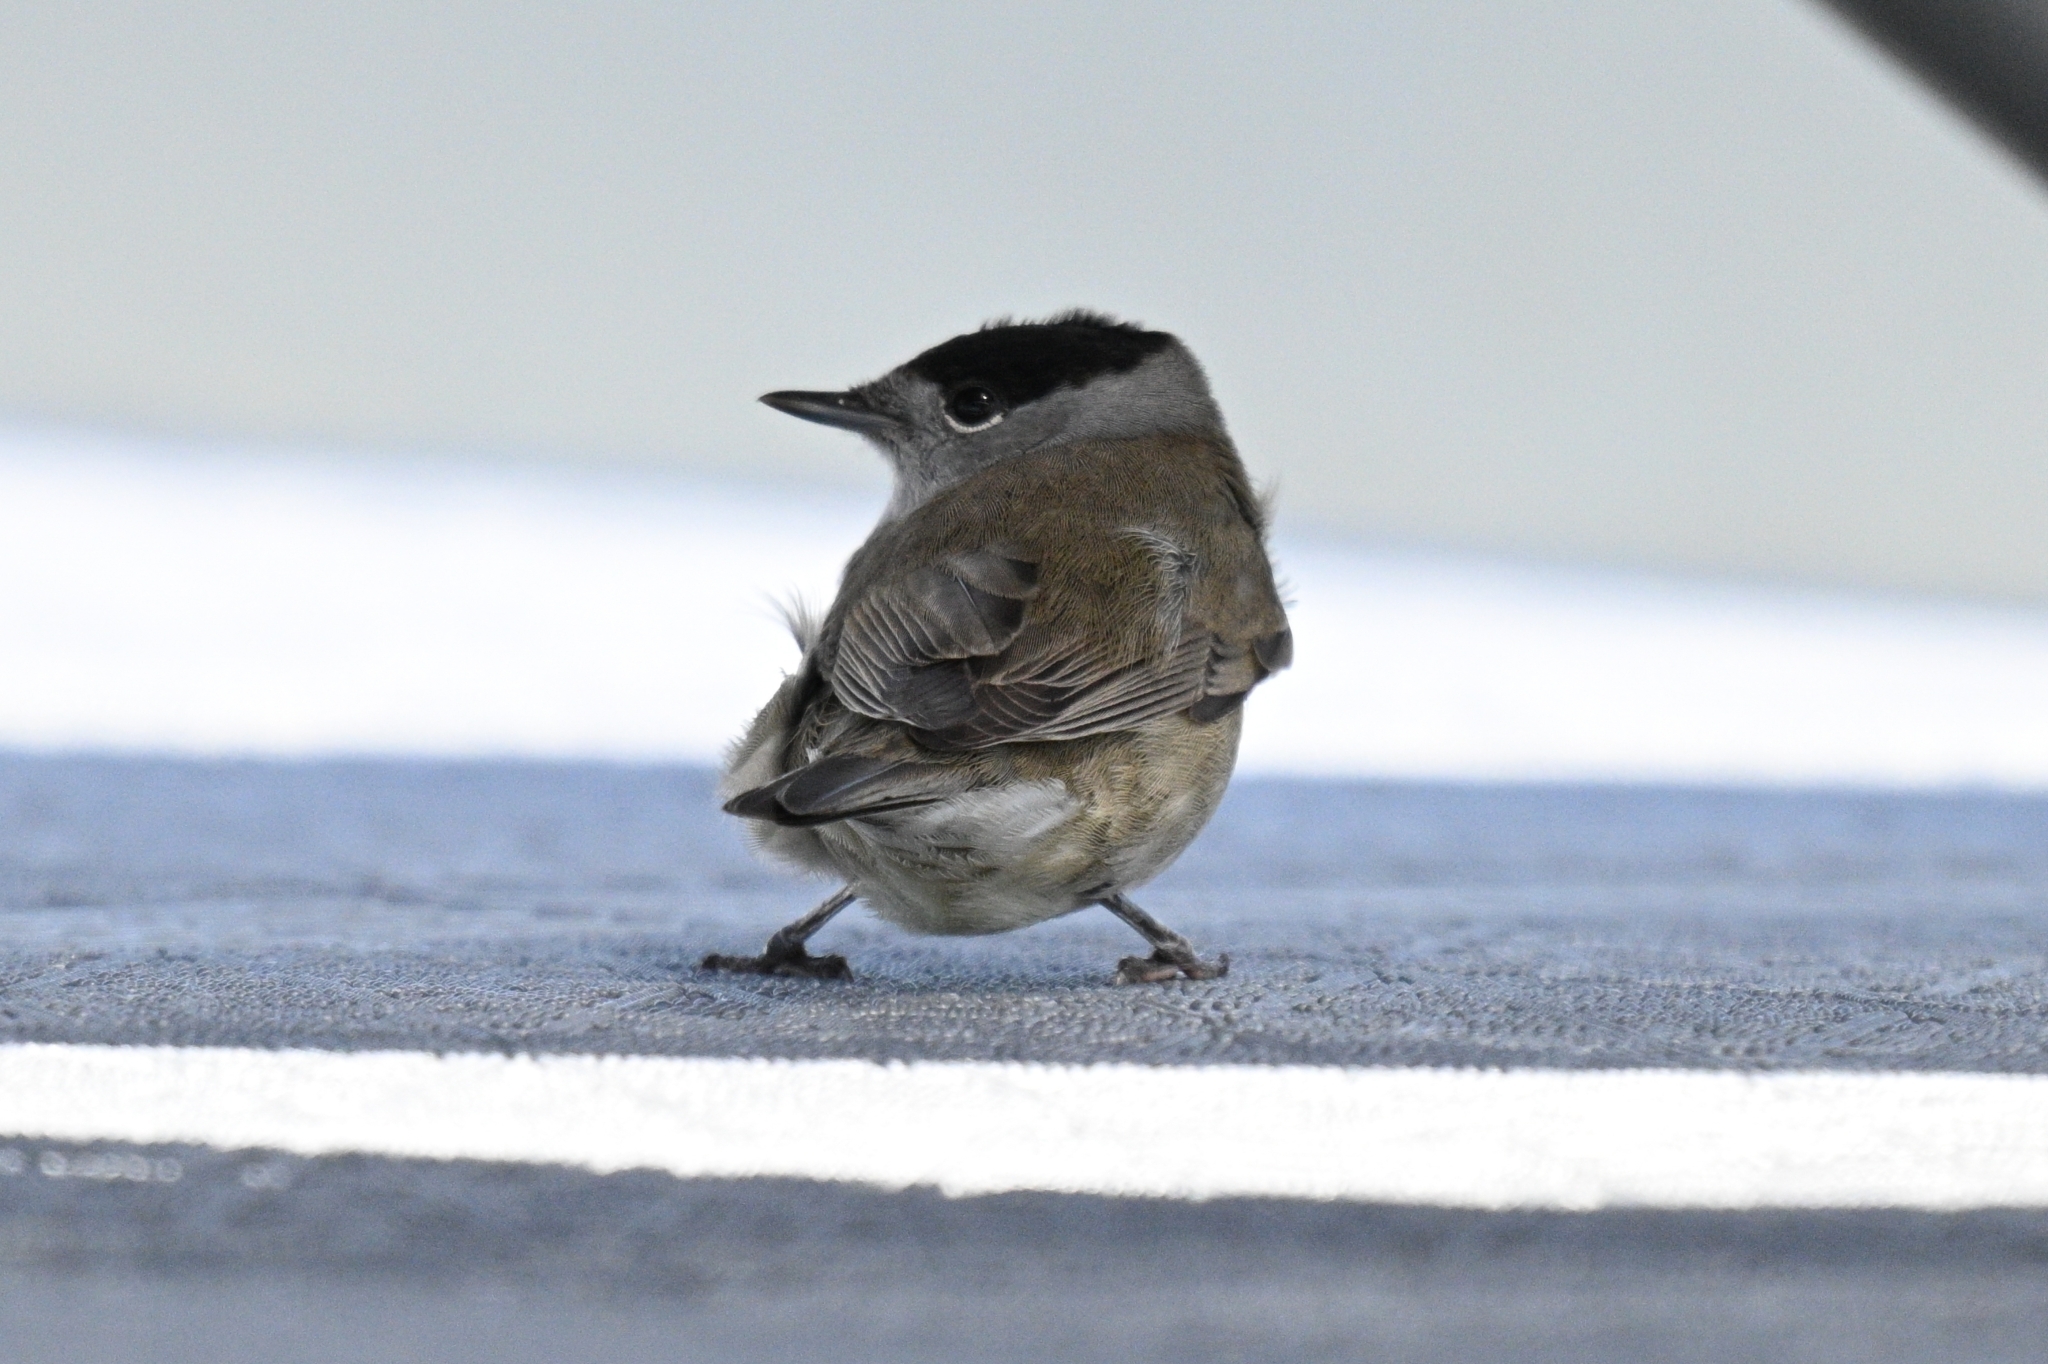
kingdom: Animalia
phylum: Chordata
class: Aves
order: Passeriformes
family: Sylviidae
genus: Sylvia
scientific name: Sylvia atricapilla
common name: Eurasian blackcap
